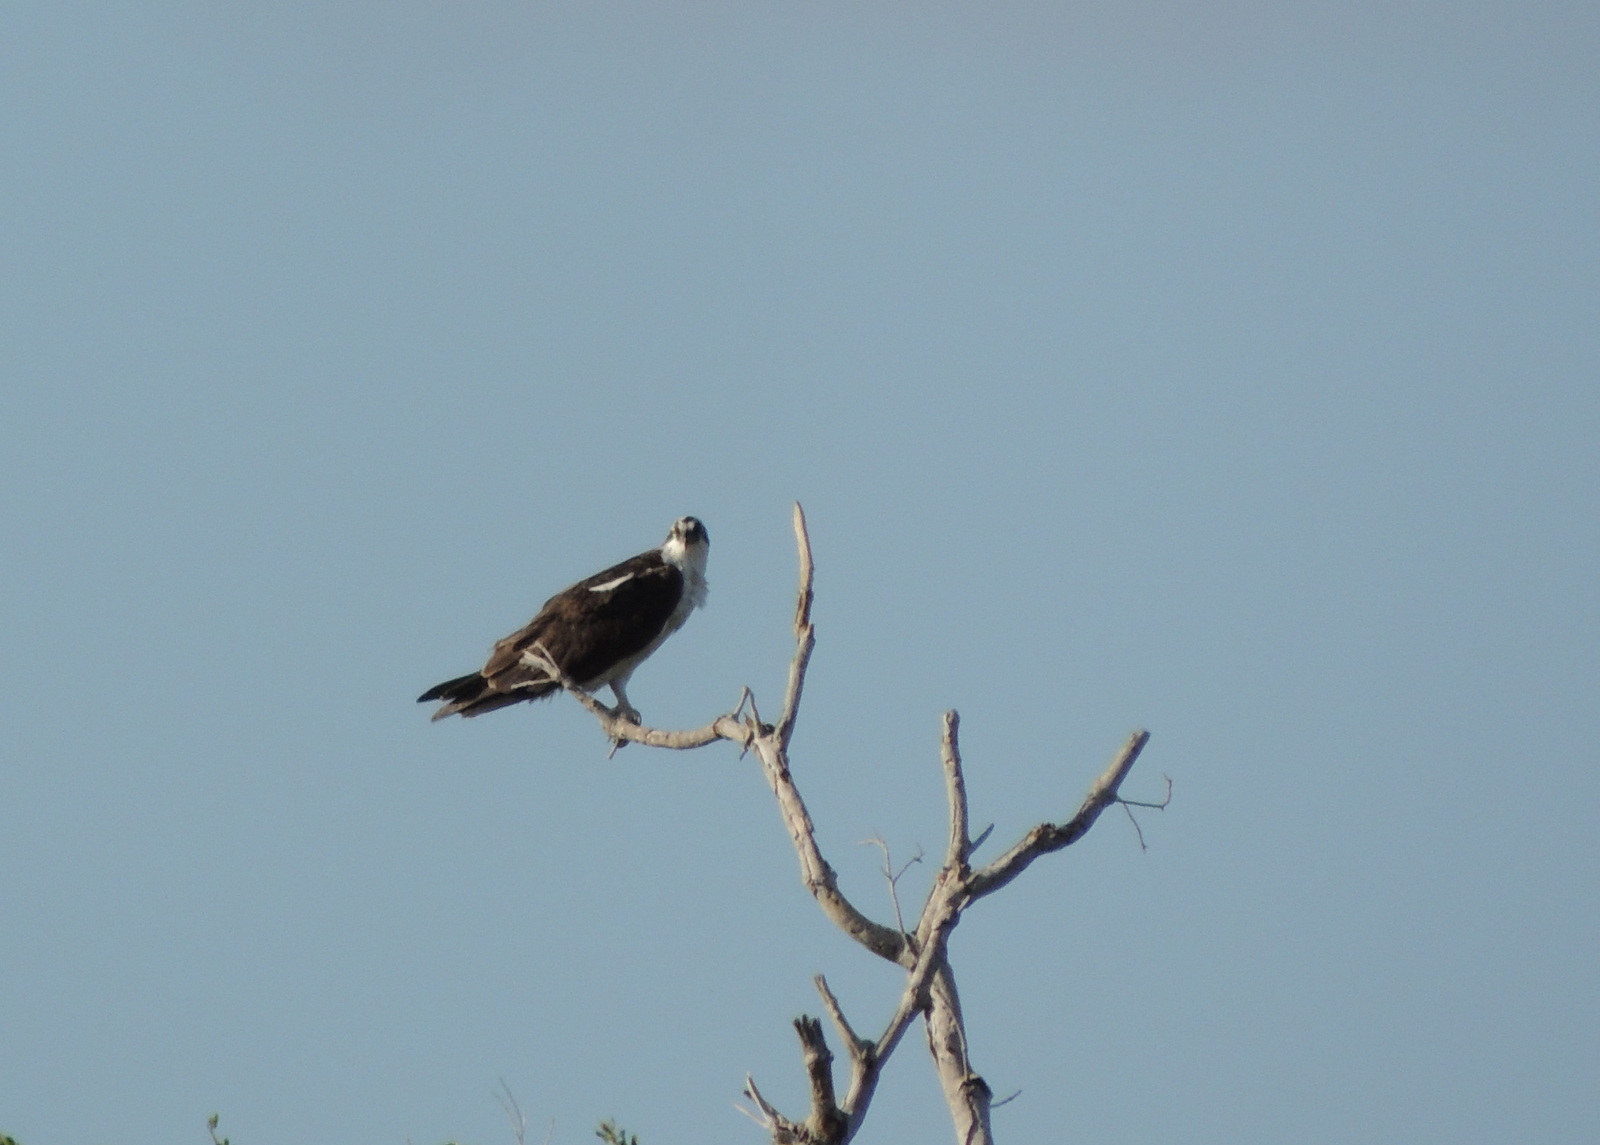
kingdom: Animalia
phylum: Chordata
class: Aves
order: Accipitriformes
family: Pandionidae
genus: Pandion
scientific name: Pandion haliaetus
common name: Osprey
